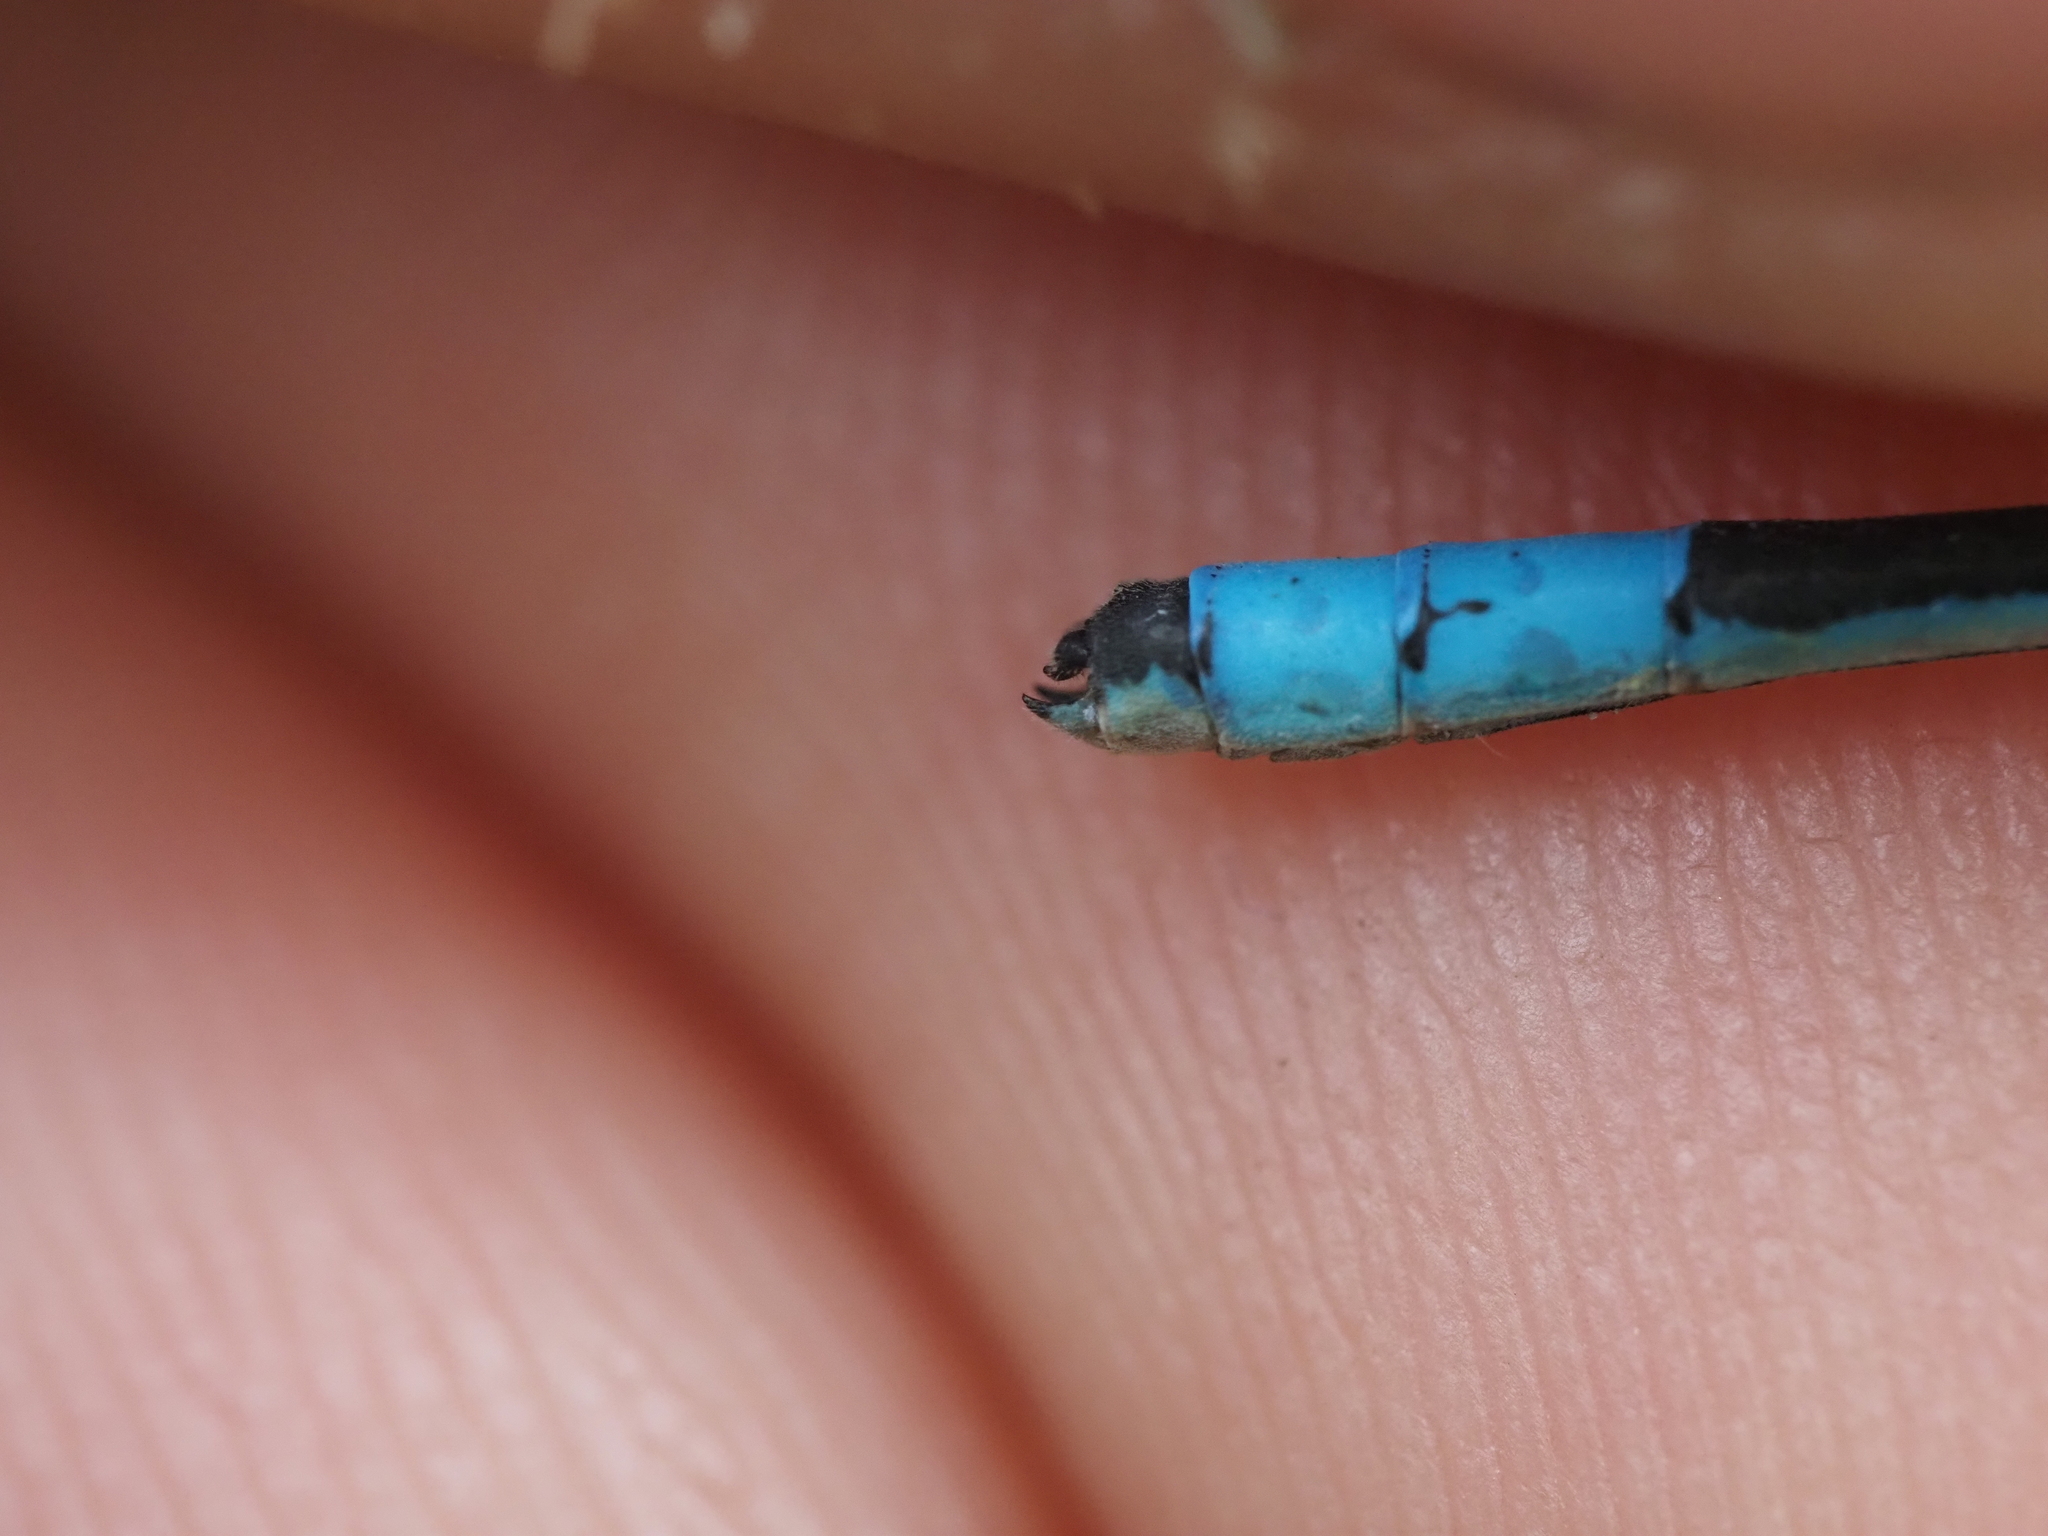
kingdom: Animalia
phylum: Arthropoda
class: Insecta
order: Odonata
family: Coenagrionidae
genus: Enallagma
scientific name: Enallagma annexum
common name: Northern bluet
